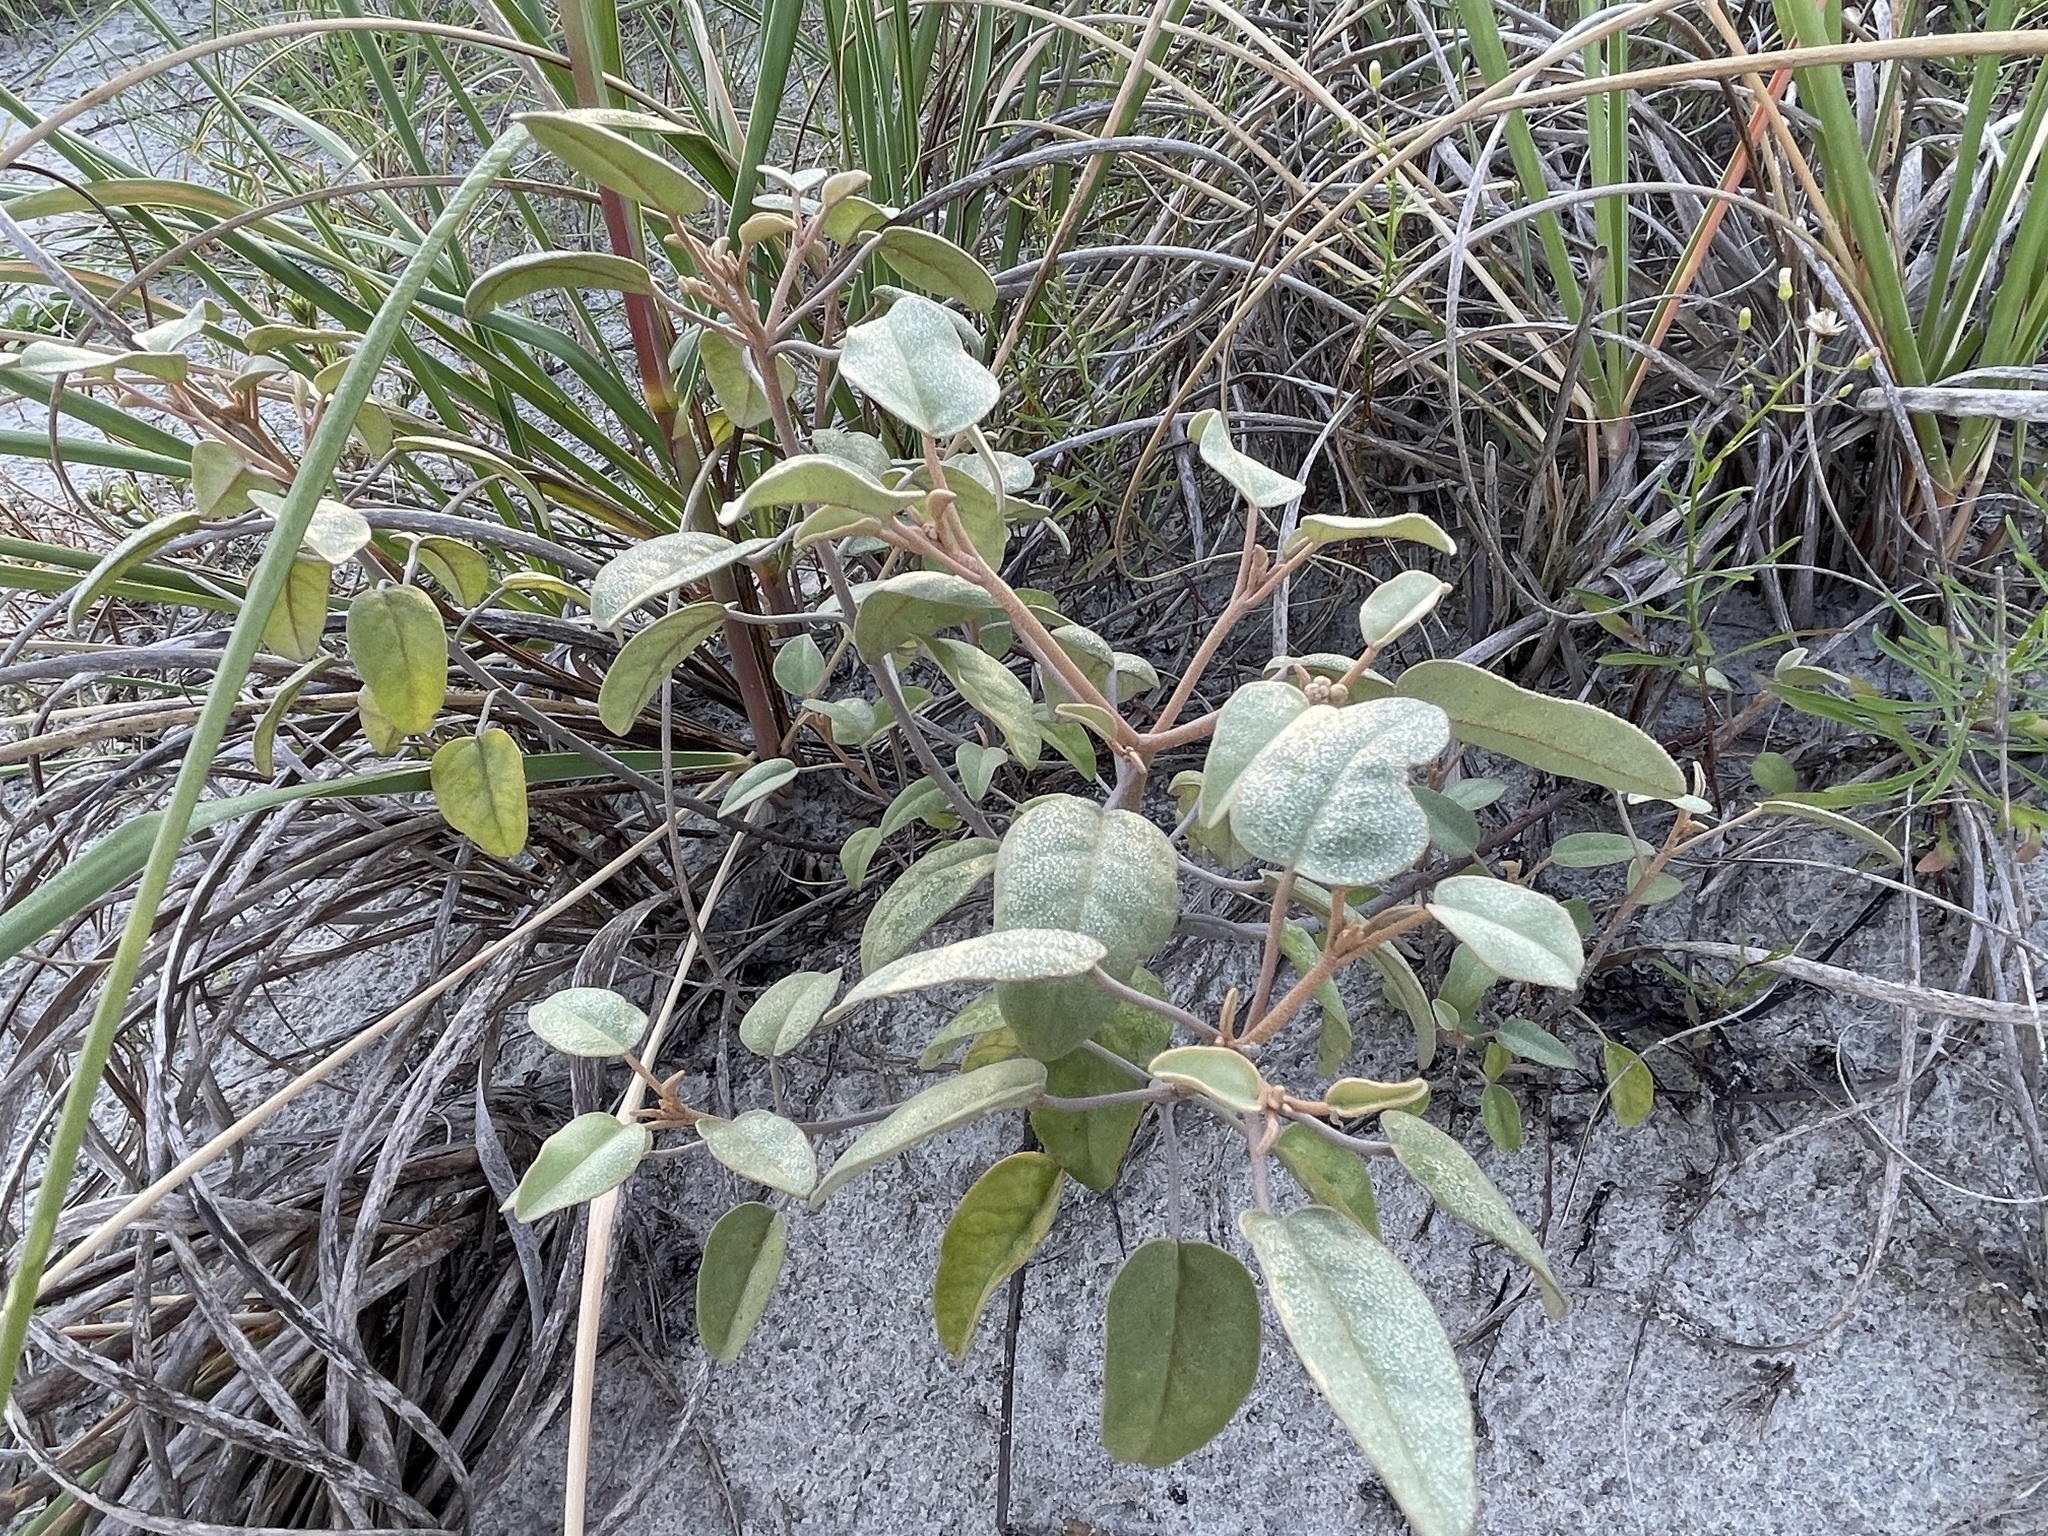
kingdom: Plantae
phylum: Tracheophyta
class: Magnoliopsida
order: Malpighiales
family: Euphorbiaceae
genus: Croton
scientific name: Croton punctatus
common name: Beach-tea
